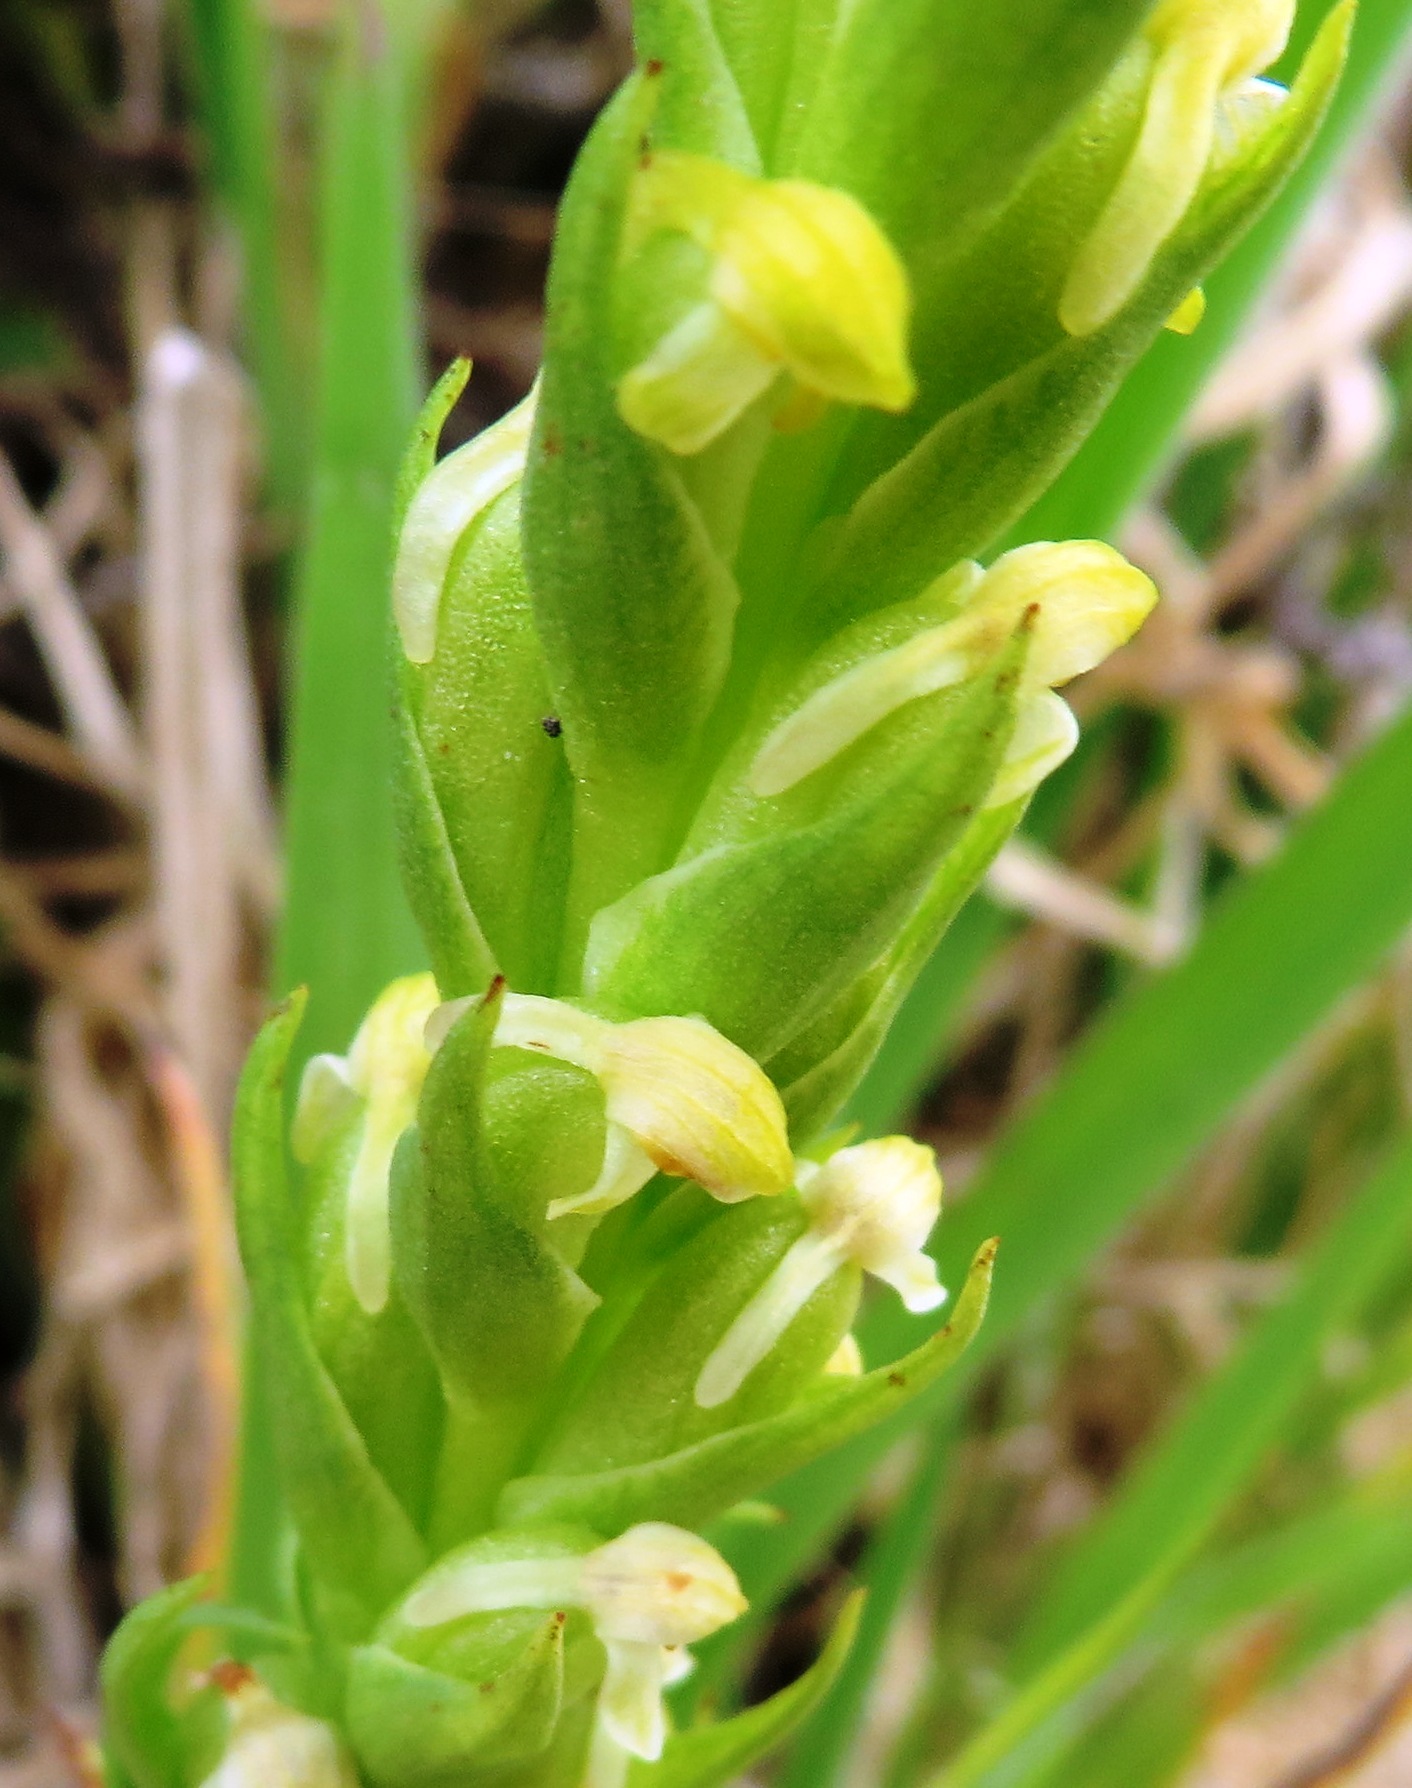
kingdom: Plantae
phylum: Tracheophyta
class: Liliopsida
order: Asparagales
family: Orchidaceae
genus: Disa
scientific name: Disa bracteata
